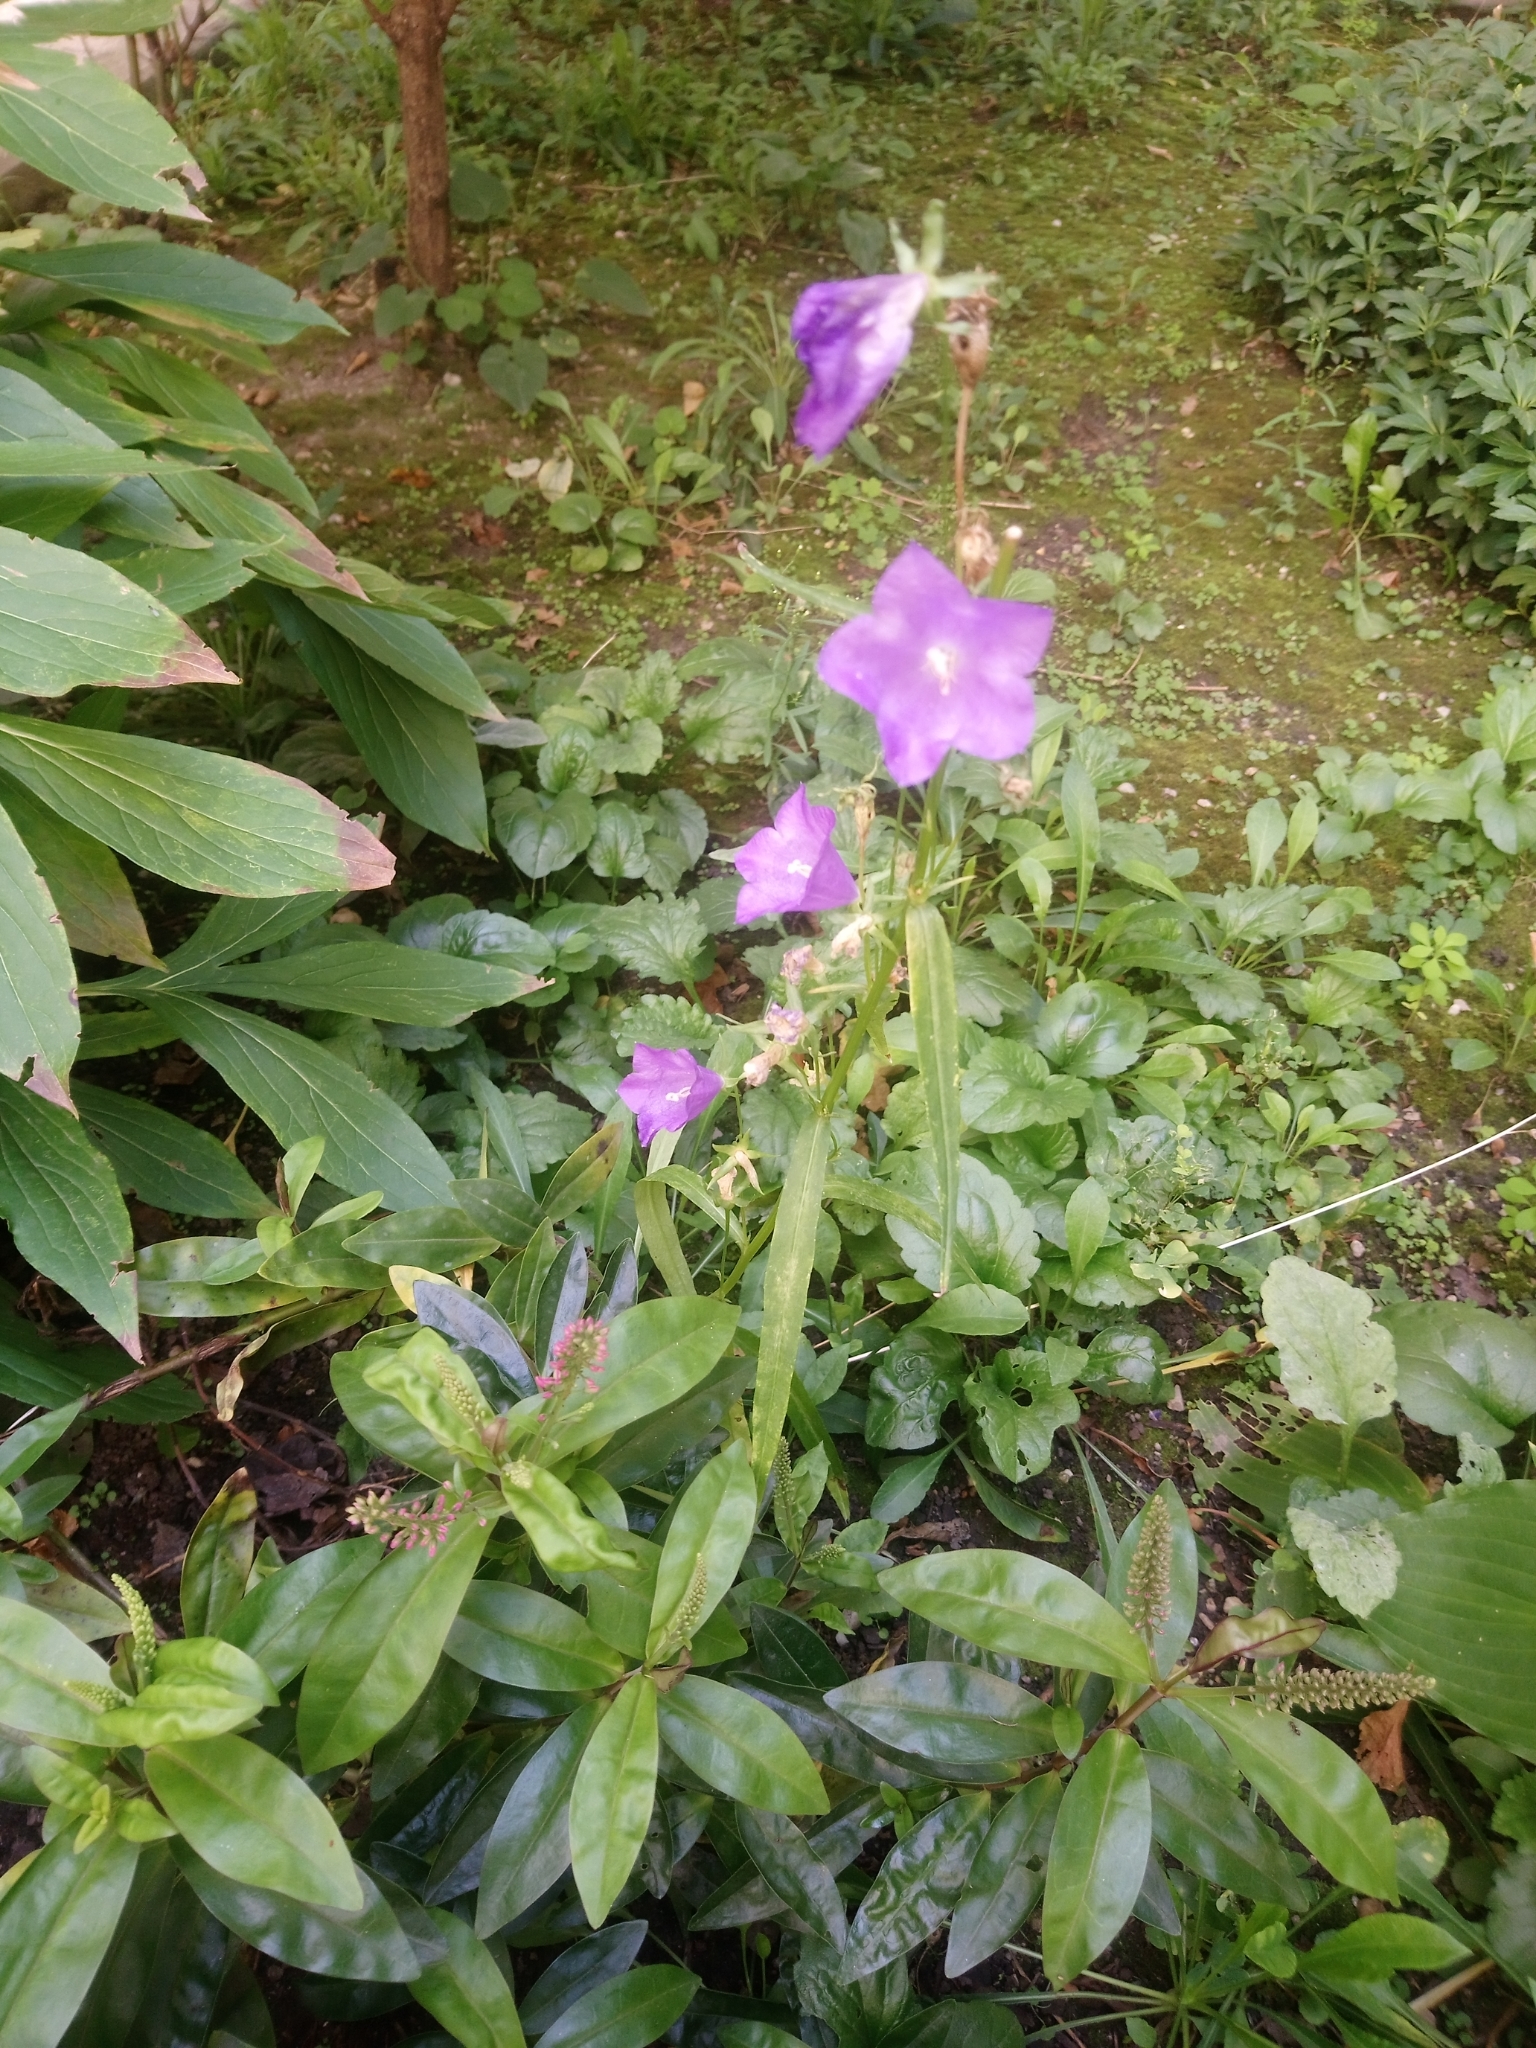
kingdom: Plantae
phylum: Tracheophyta
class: Magnoliopsida
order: Asterales
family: Campanulaceae
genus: Campanula
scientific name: Campanula persicifolia
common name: Peach-leaved bellflower
